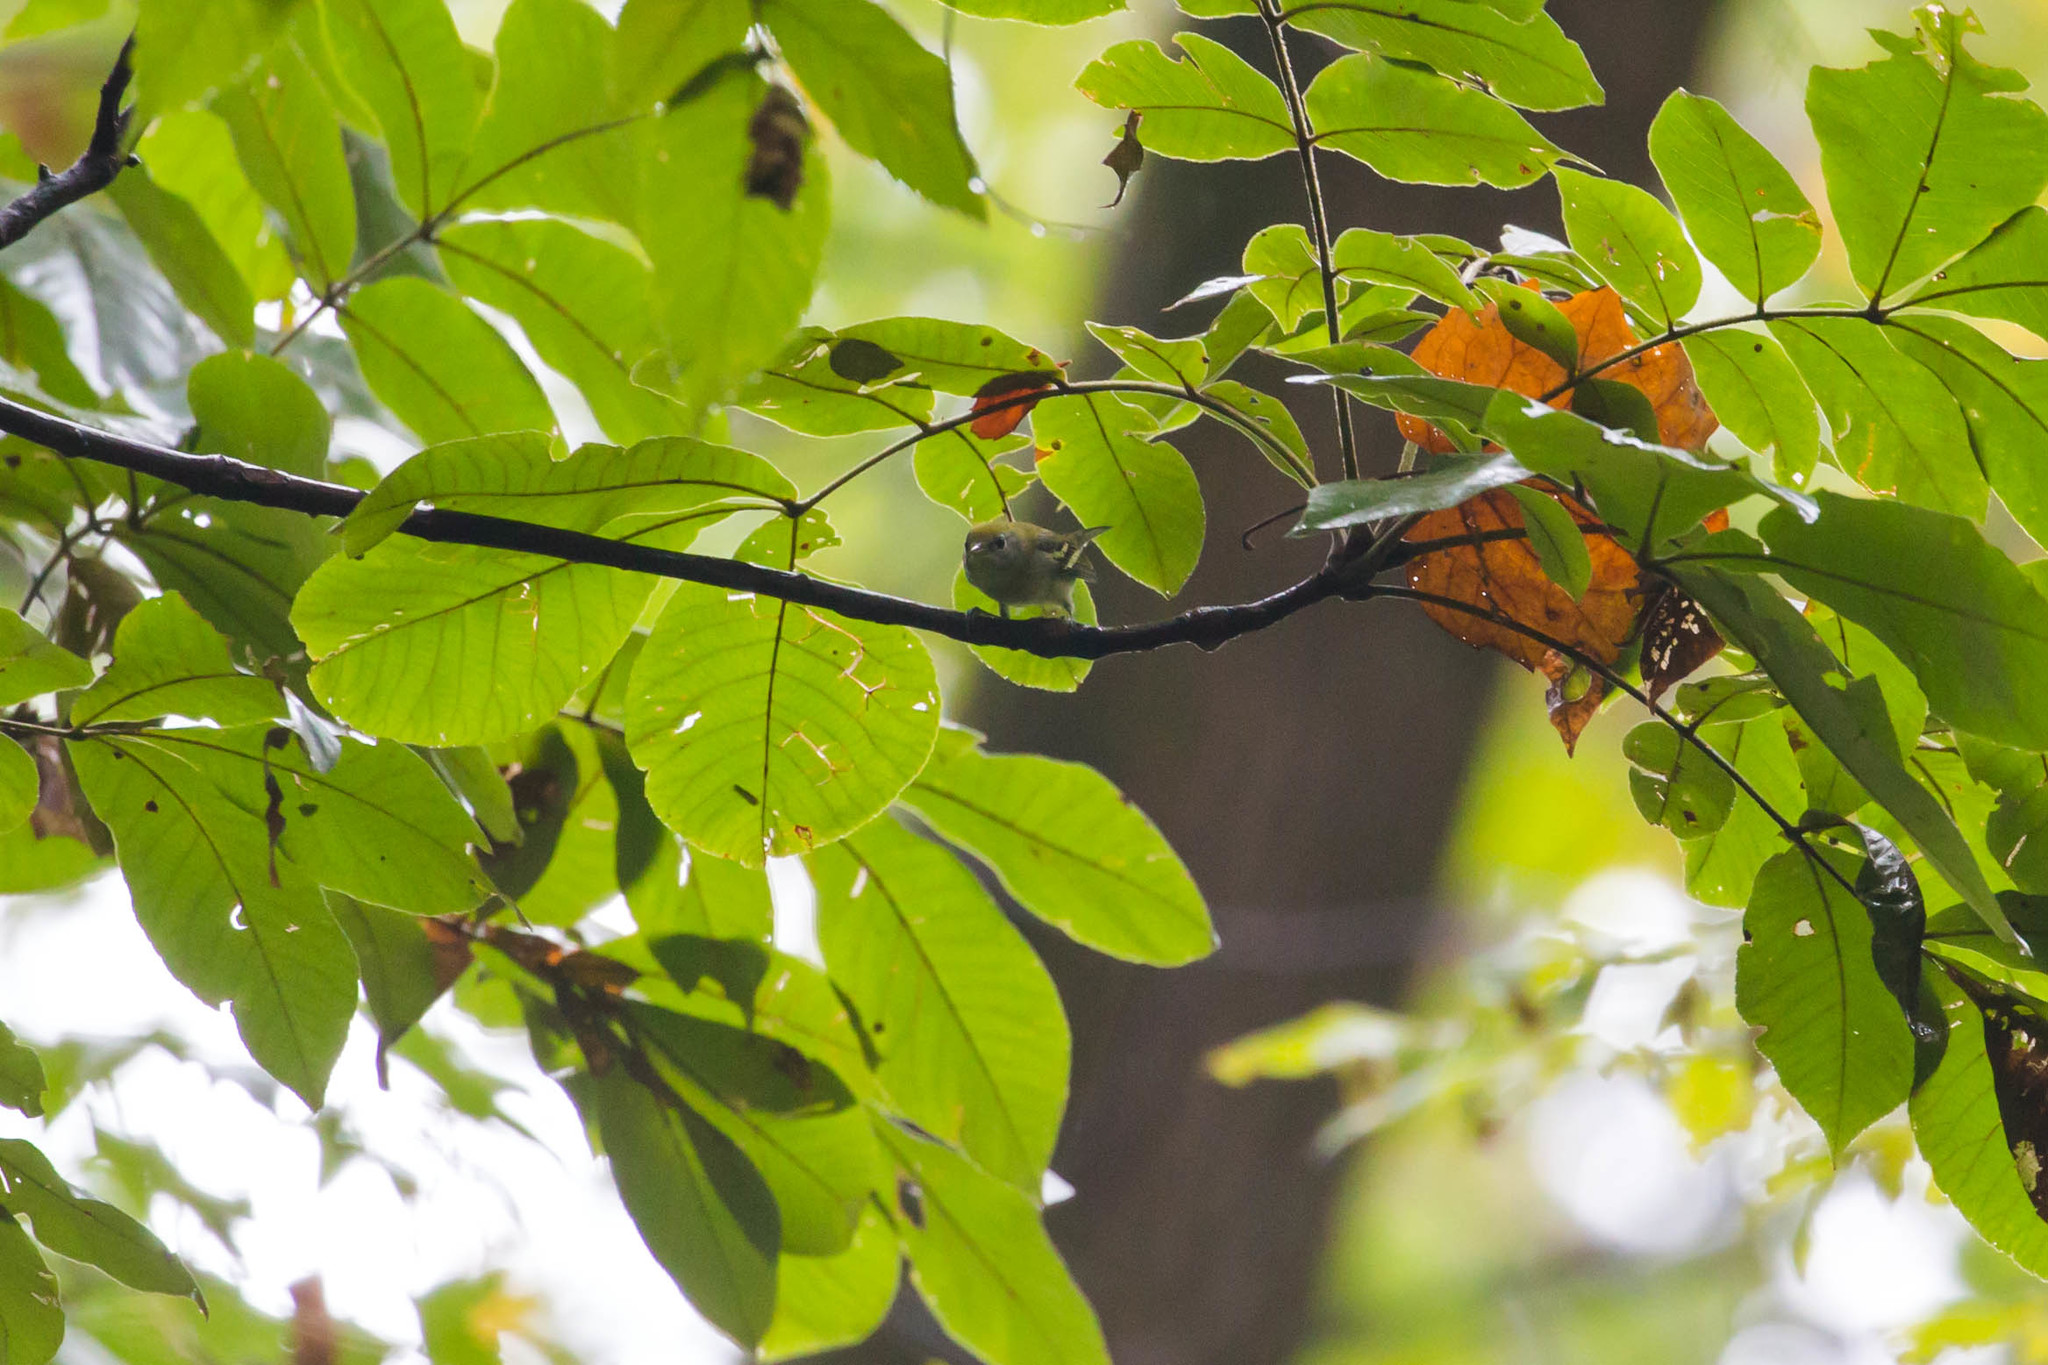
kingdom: Animalia
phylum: Chordata
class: Aves
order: Passeriformes
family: Parulidae
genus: Setophaga
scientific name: Setophaga pensylvanica
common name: Chestnut-sided warbler
